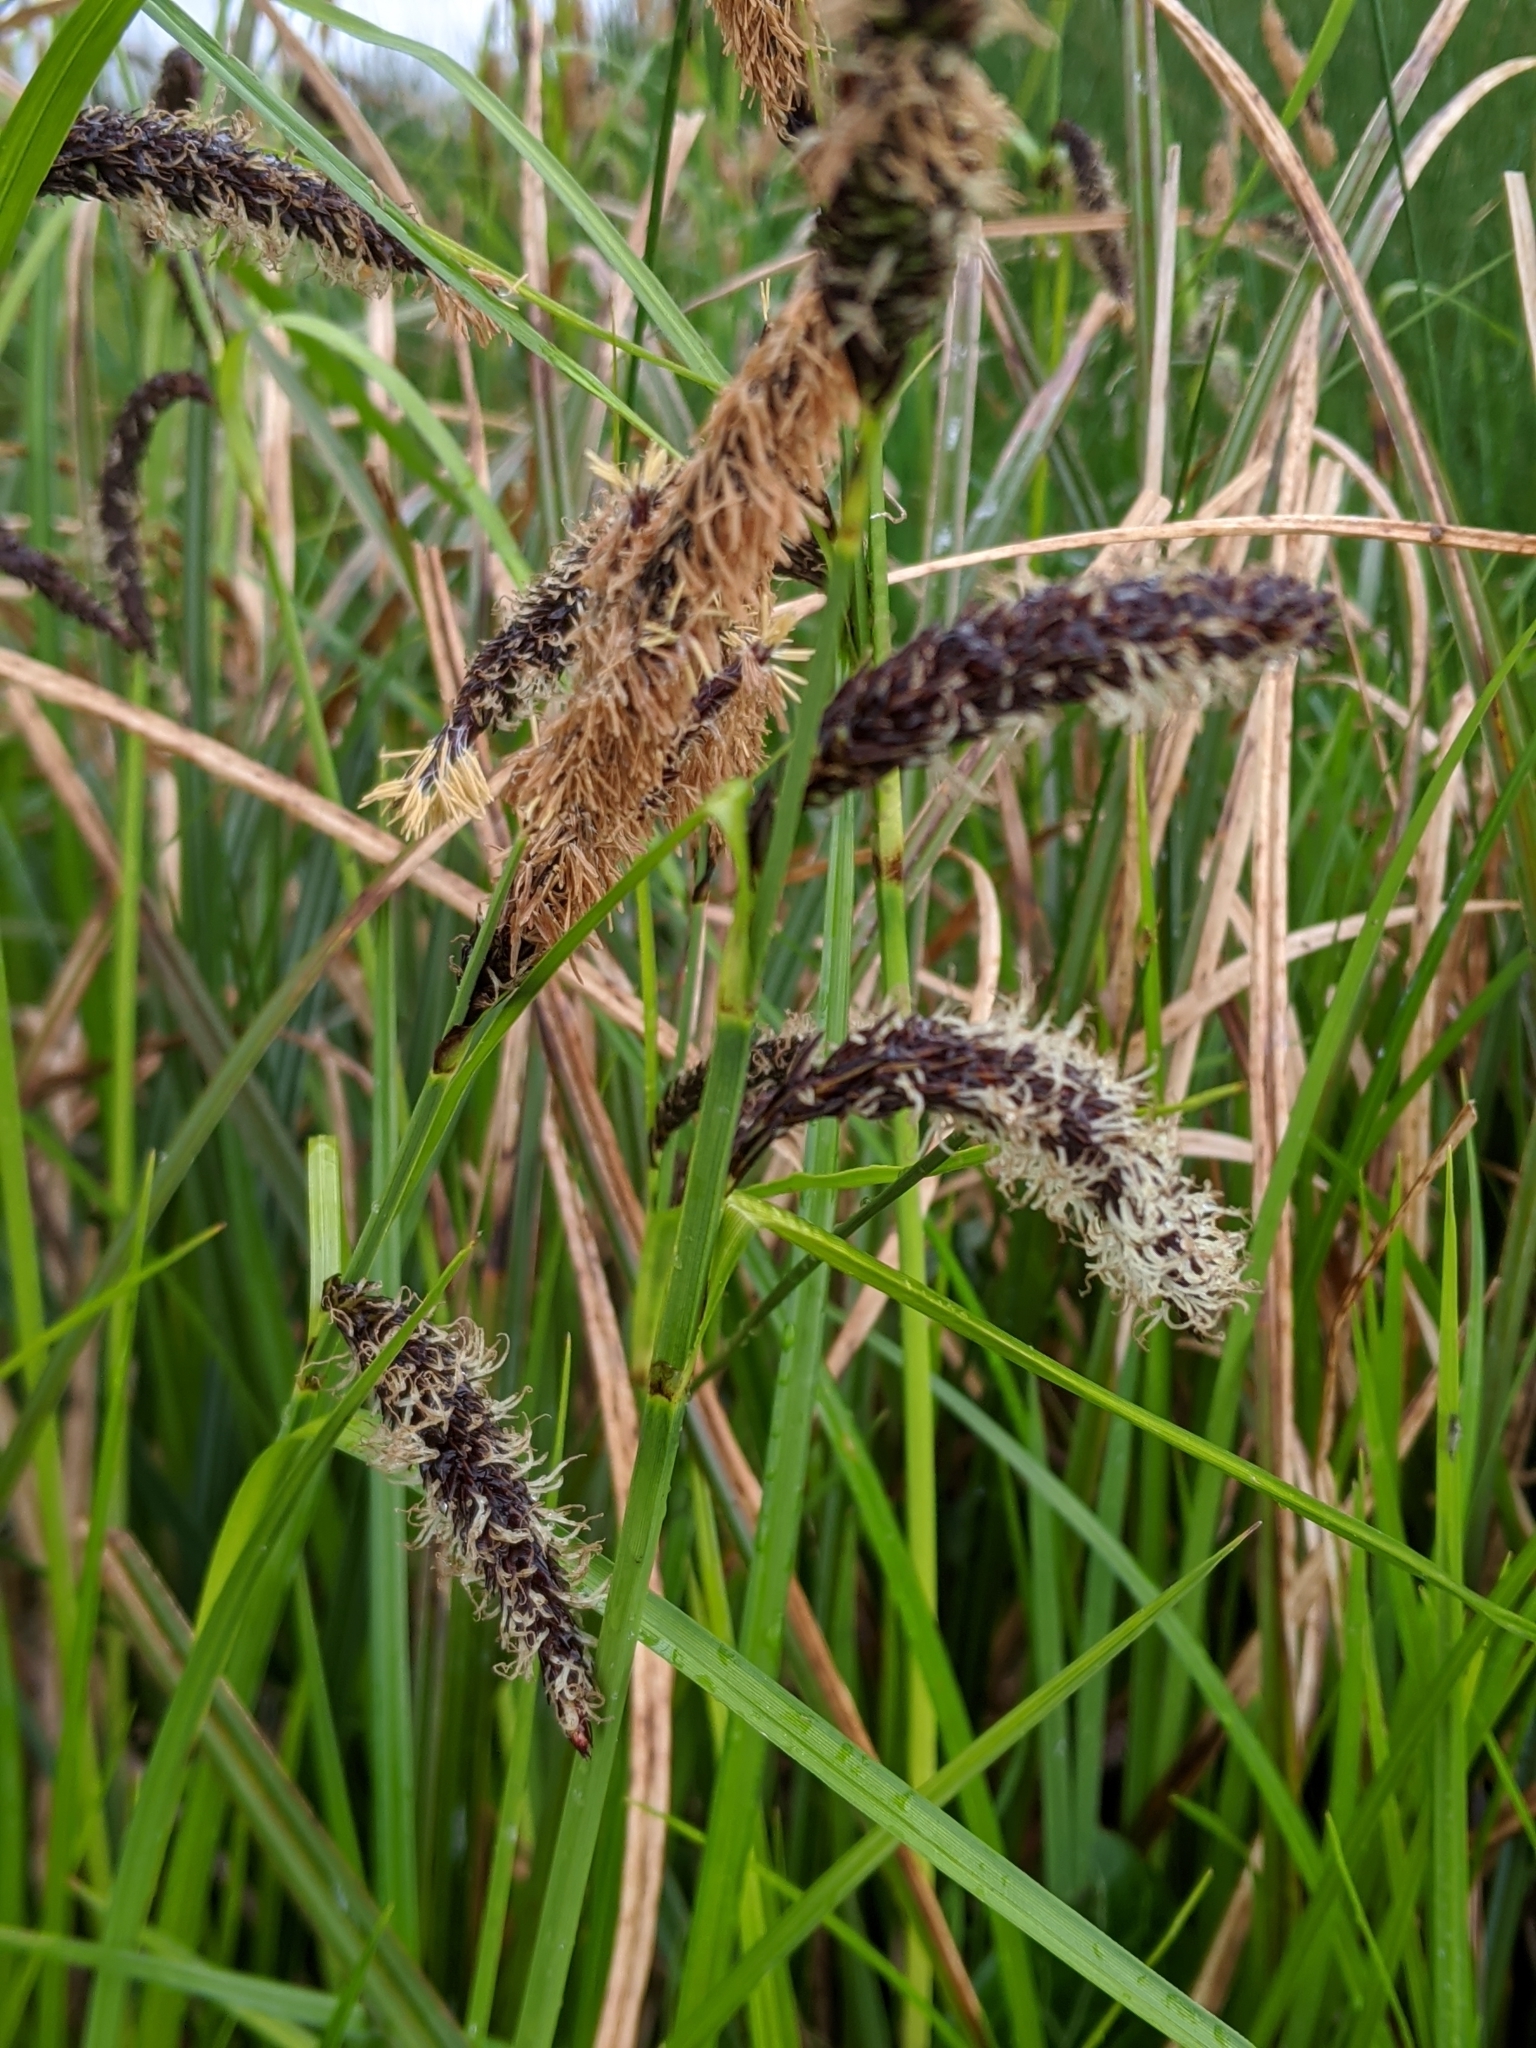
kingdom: Plantae
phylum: Tracheophyta
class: Liliopsida
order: Poales
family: Cyperaceae
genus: Carex
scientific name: Carex obnupta
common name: Slough sedge
